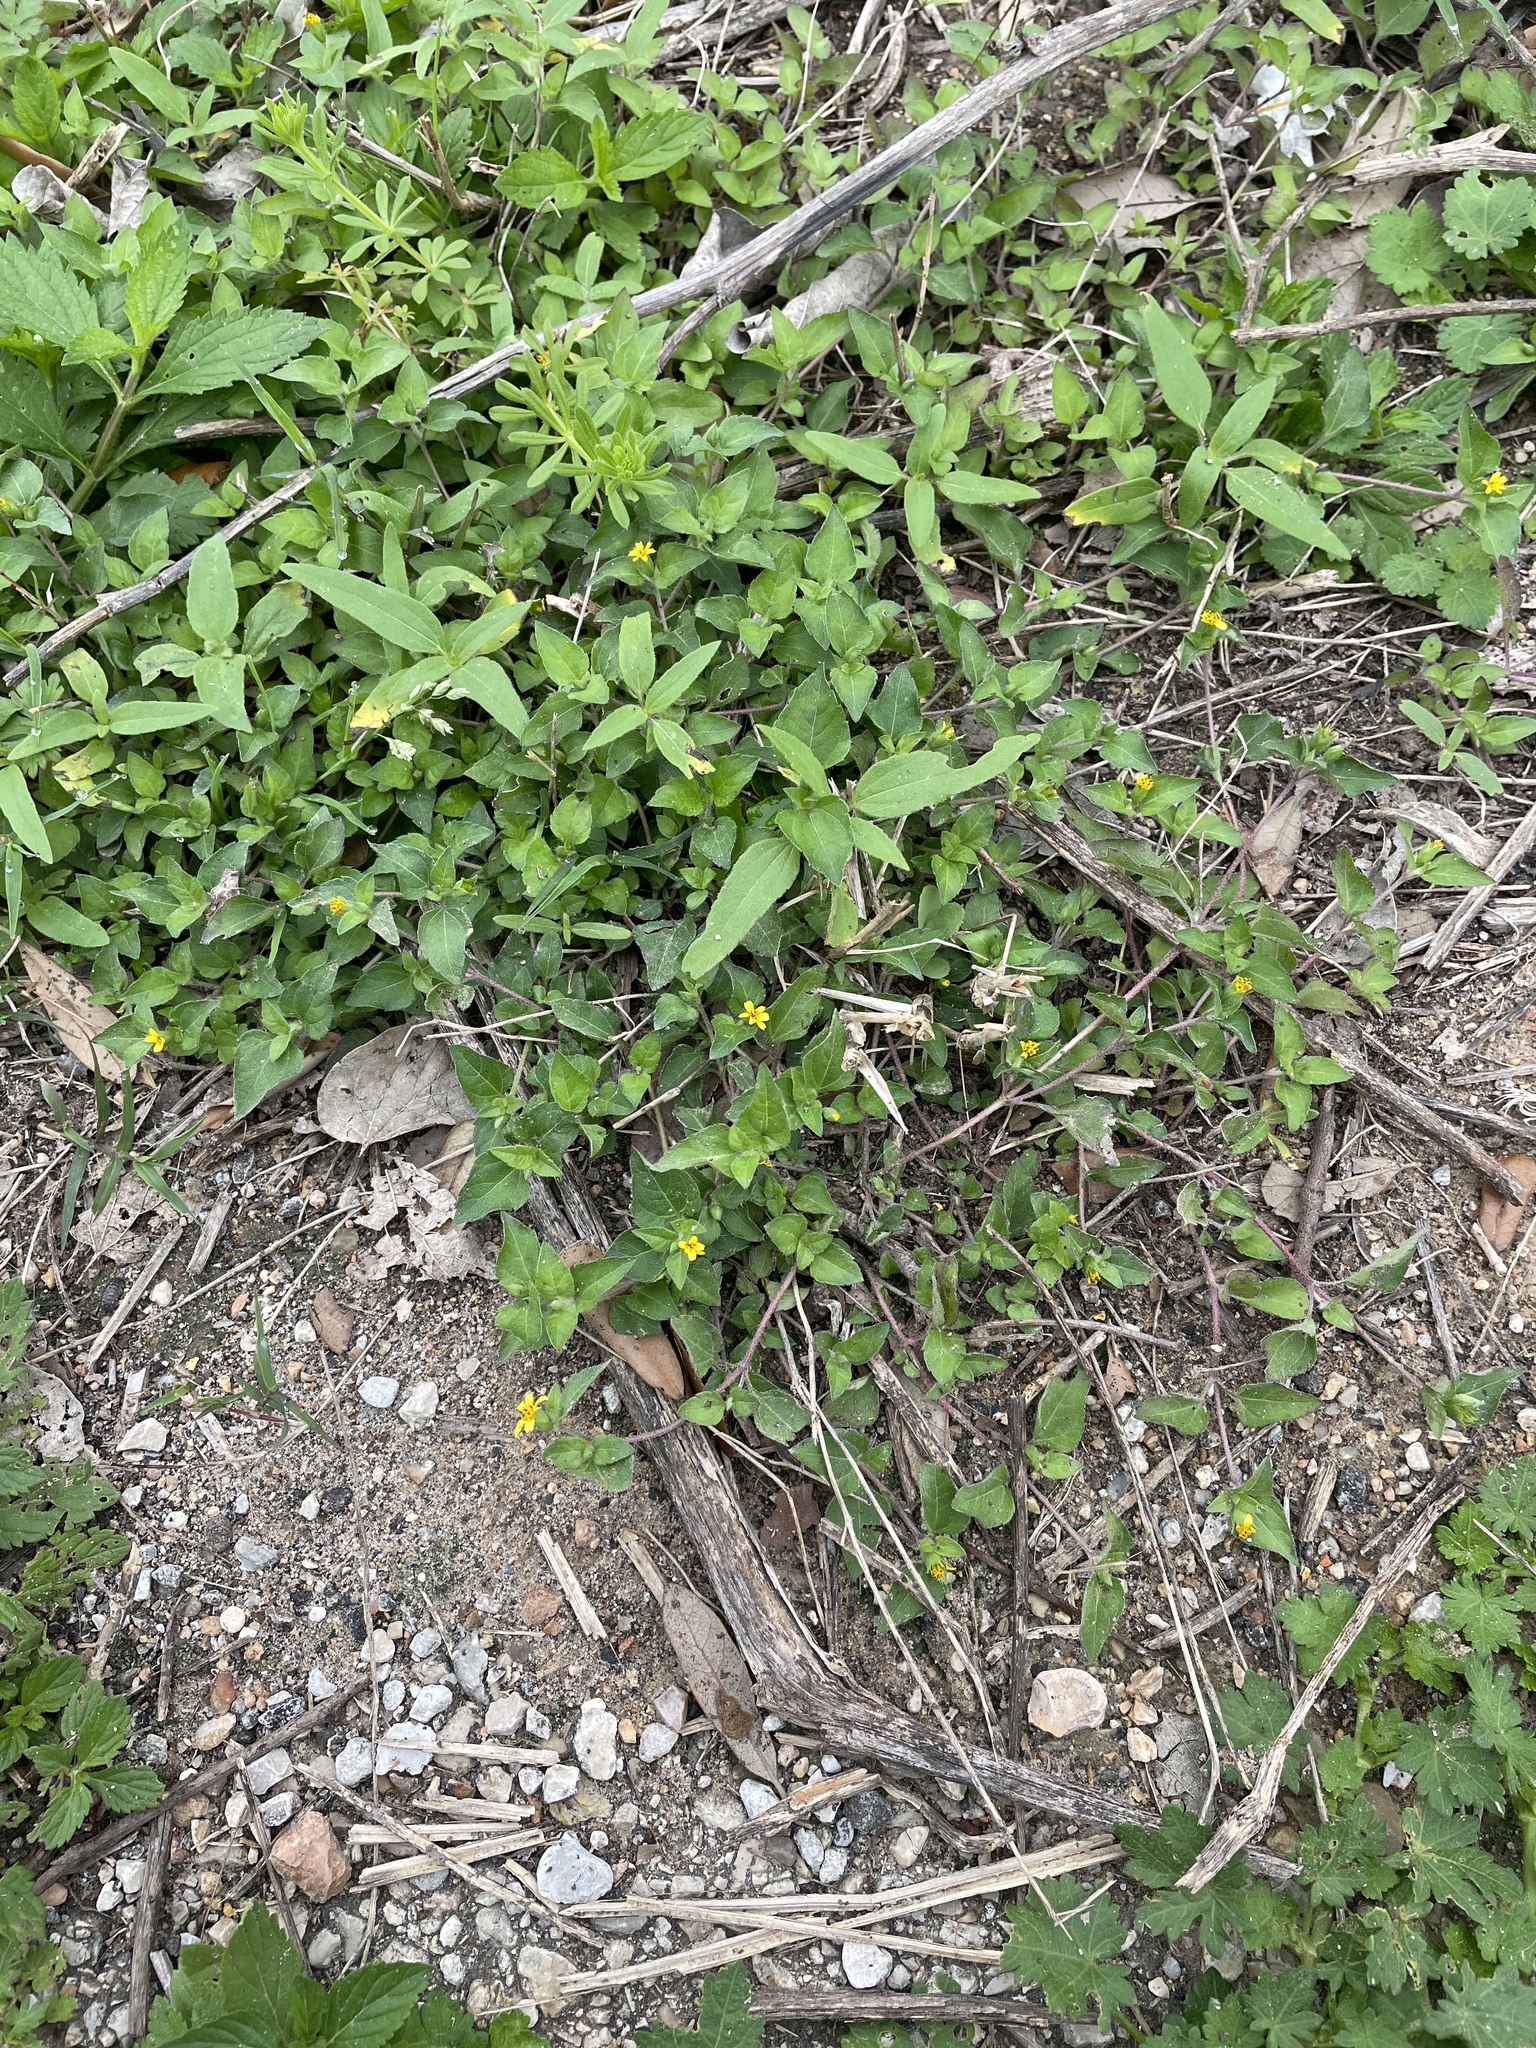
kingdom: Plantae
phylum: Tracheophyta
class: Magnoliopsida
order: Asterales
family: Asteraceae
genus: Calyptocarpus
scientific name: Calyptocarpus vialis
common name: Straggler daisy
